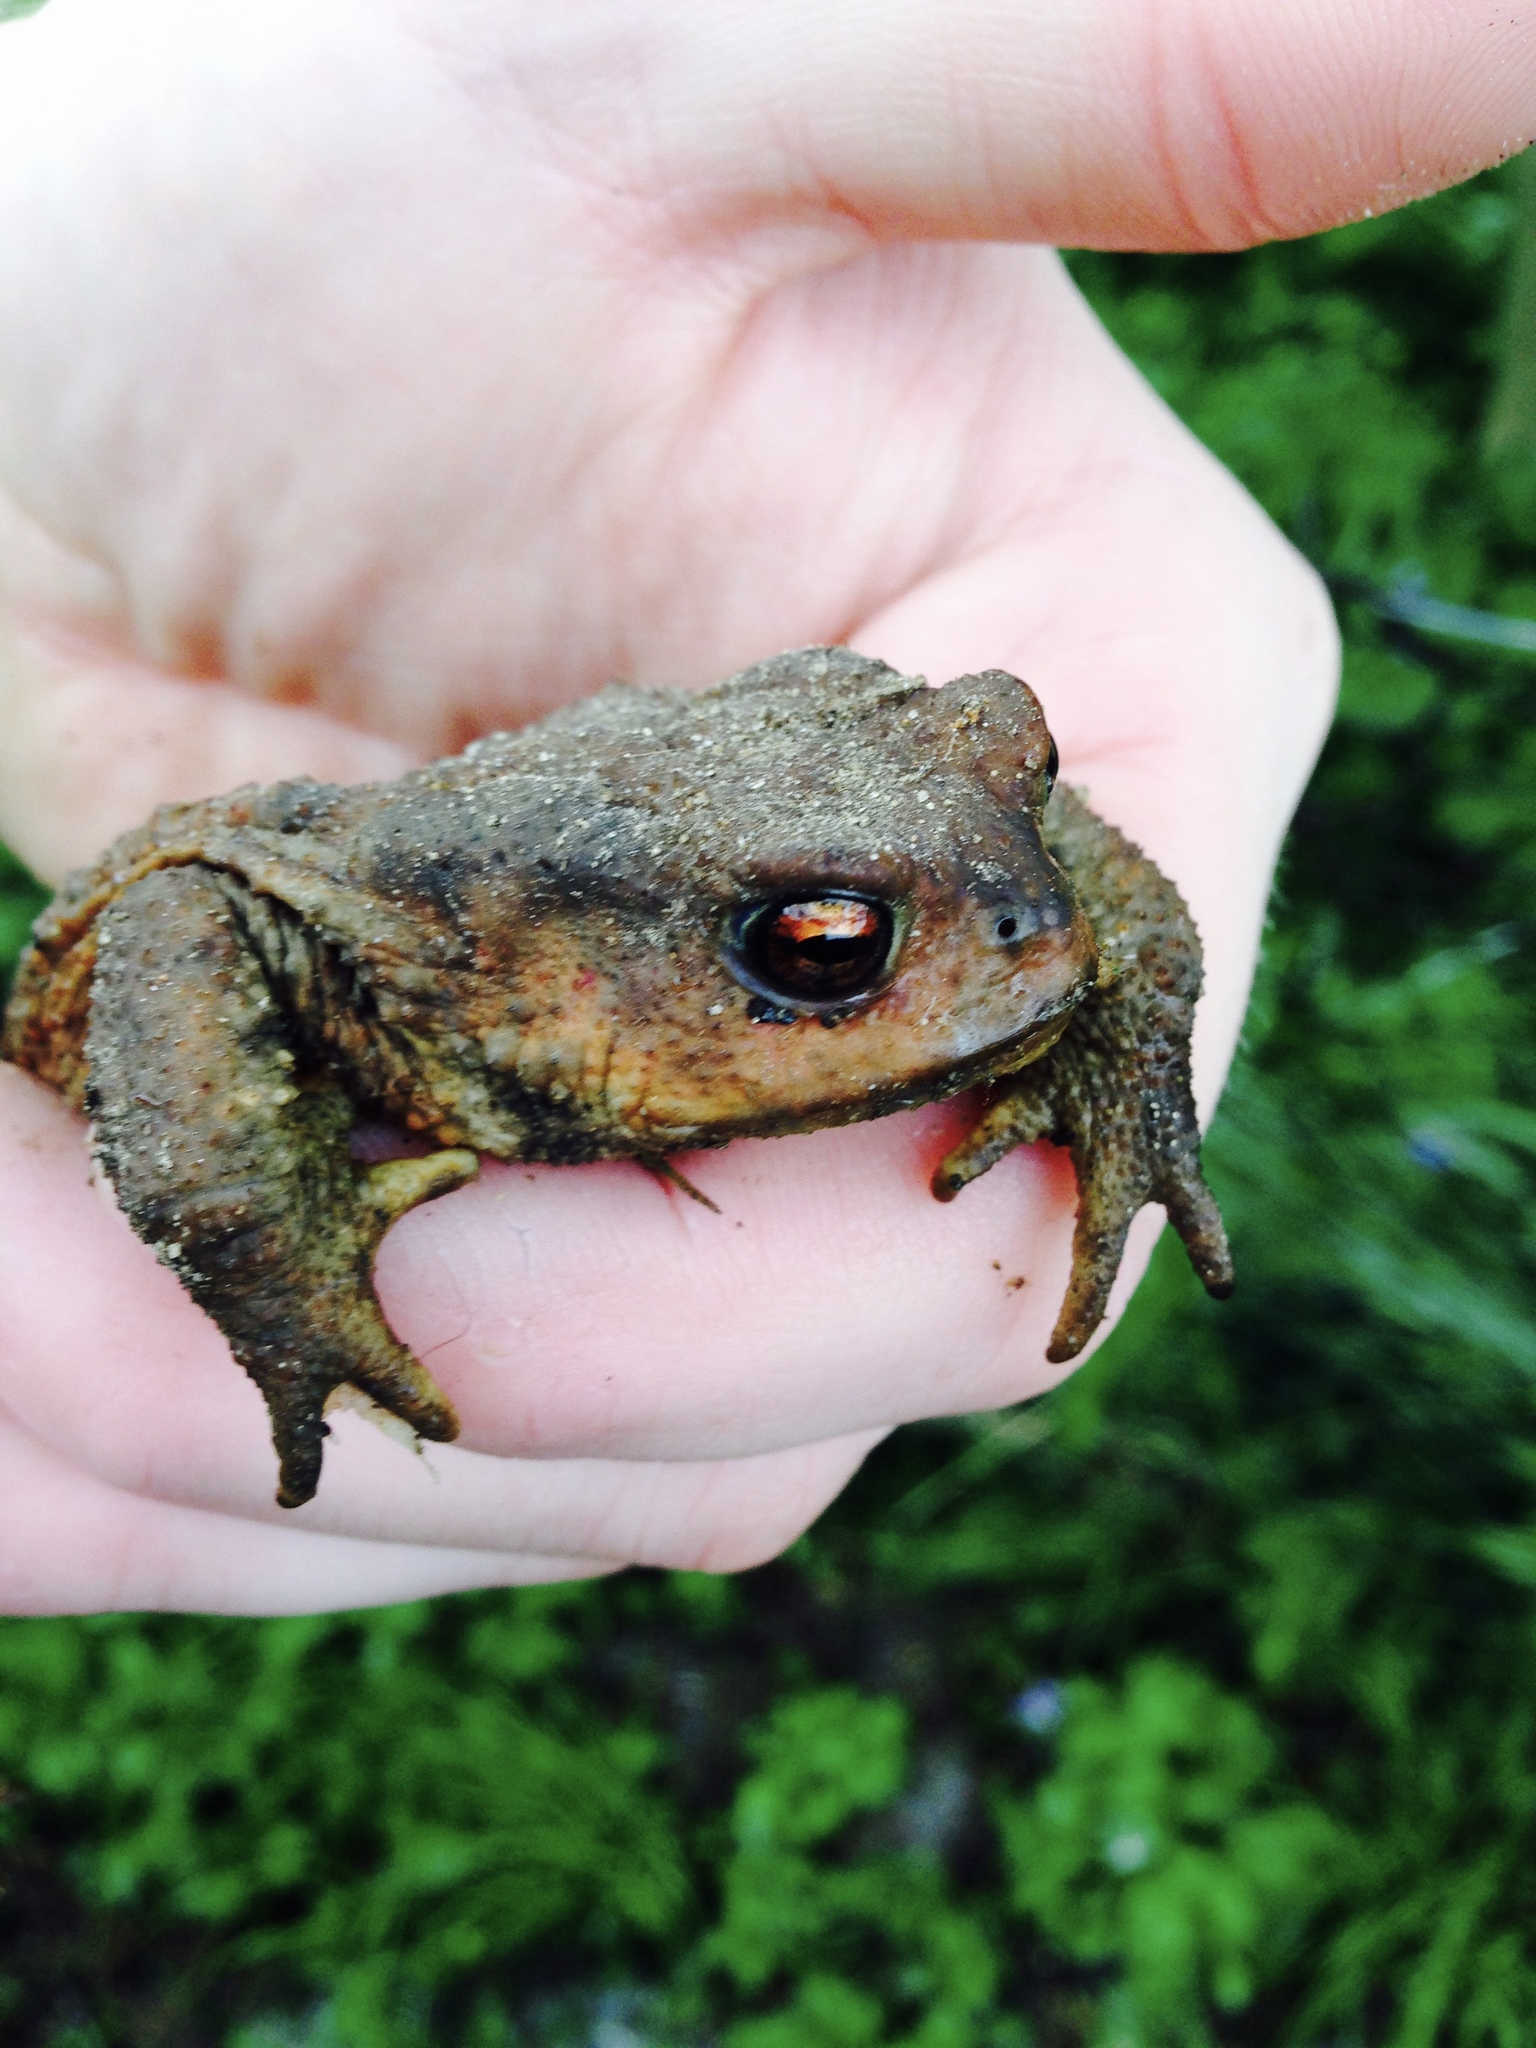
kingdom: Animalia
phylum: Chordata
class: Amphibia
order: Anura
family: Bufonidae
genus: Bufo
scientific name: Bufo spinosus
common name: Western common toad
